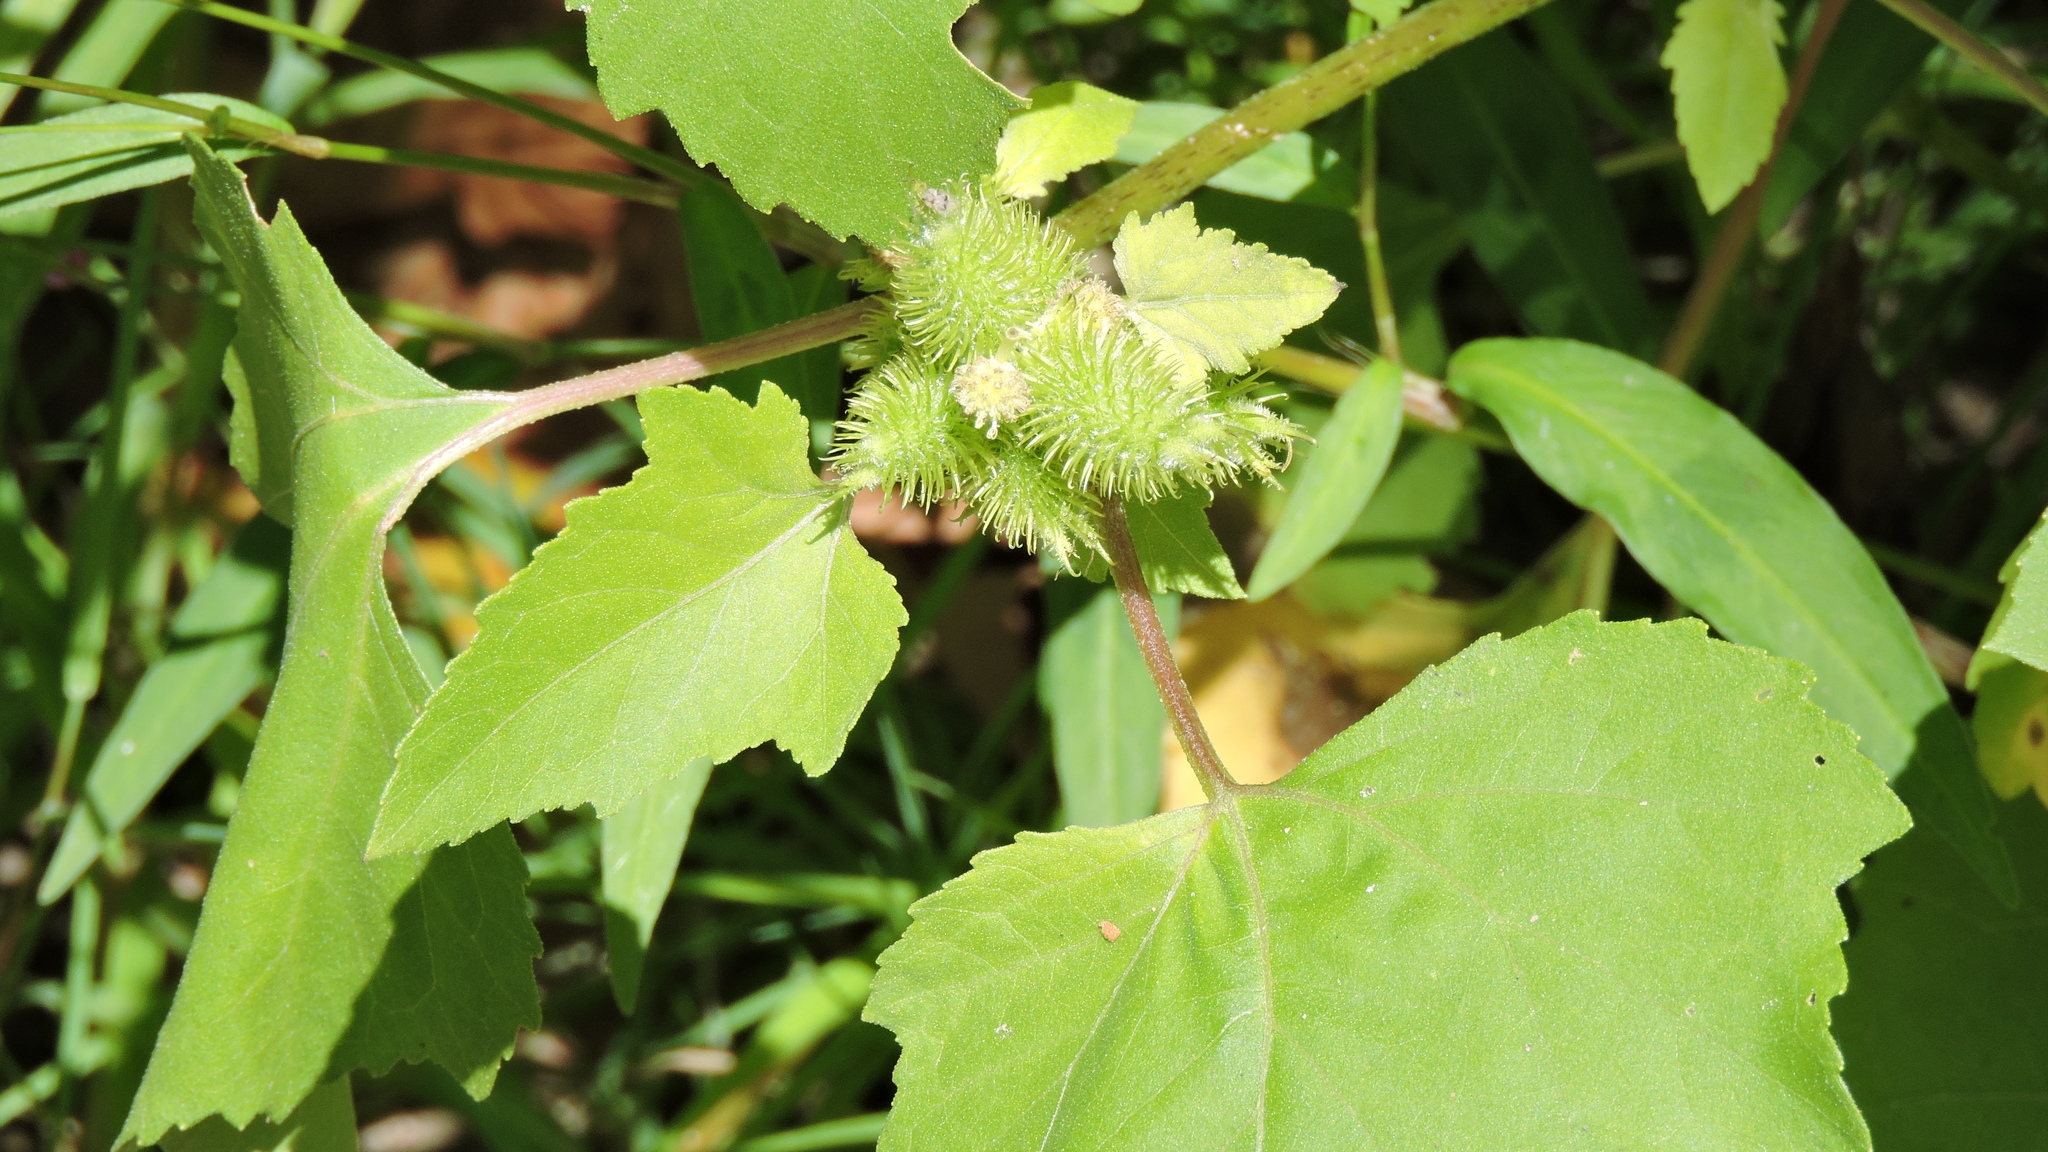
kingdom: Plantae
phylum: Tracheophyta
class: Magnoliopsida
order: Asterales
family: Asteraceae
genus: Xanthium
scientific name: Xanthium strumarium
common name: Rough cocklebur
